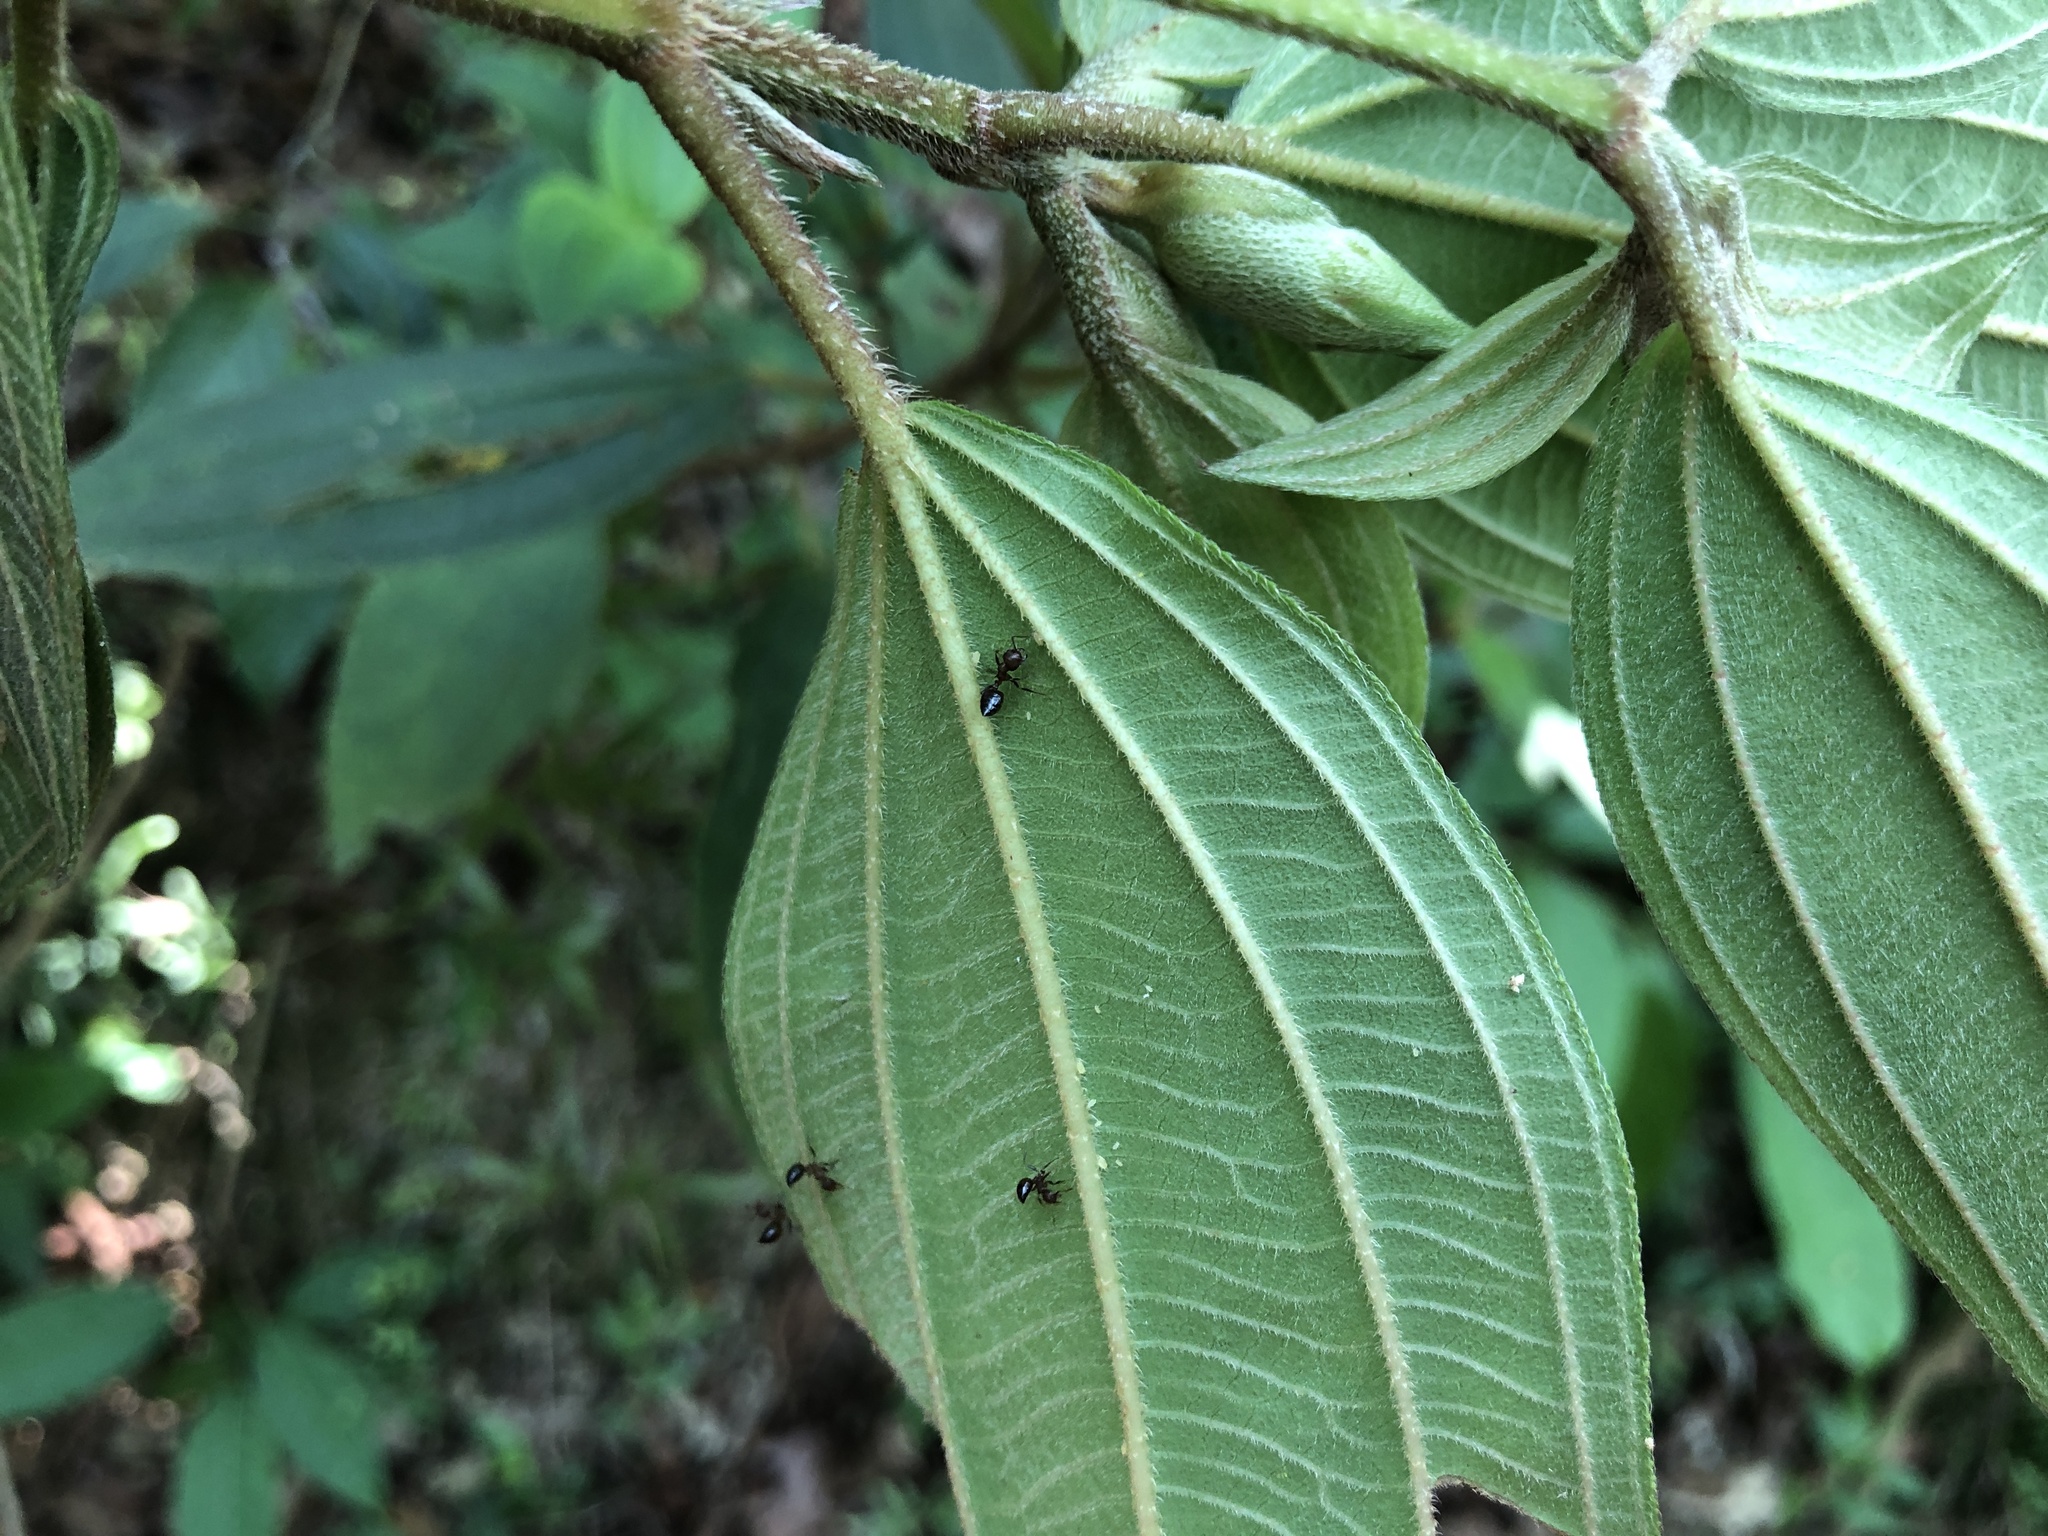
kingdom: Animalia
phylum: Arthropoda
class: Insecta
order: Hymenoptera
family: Formicidae
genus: Crematogaster
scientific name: Crematogaster rogenhoferi
